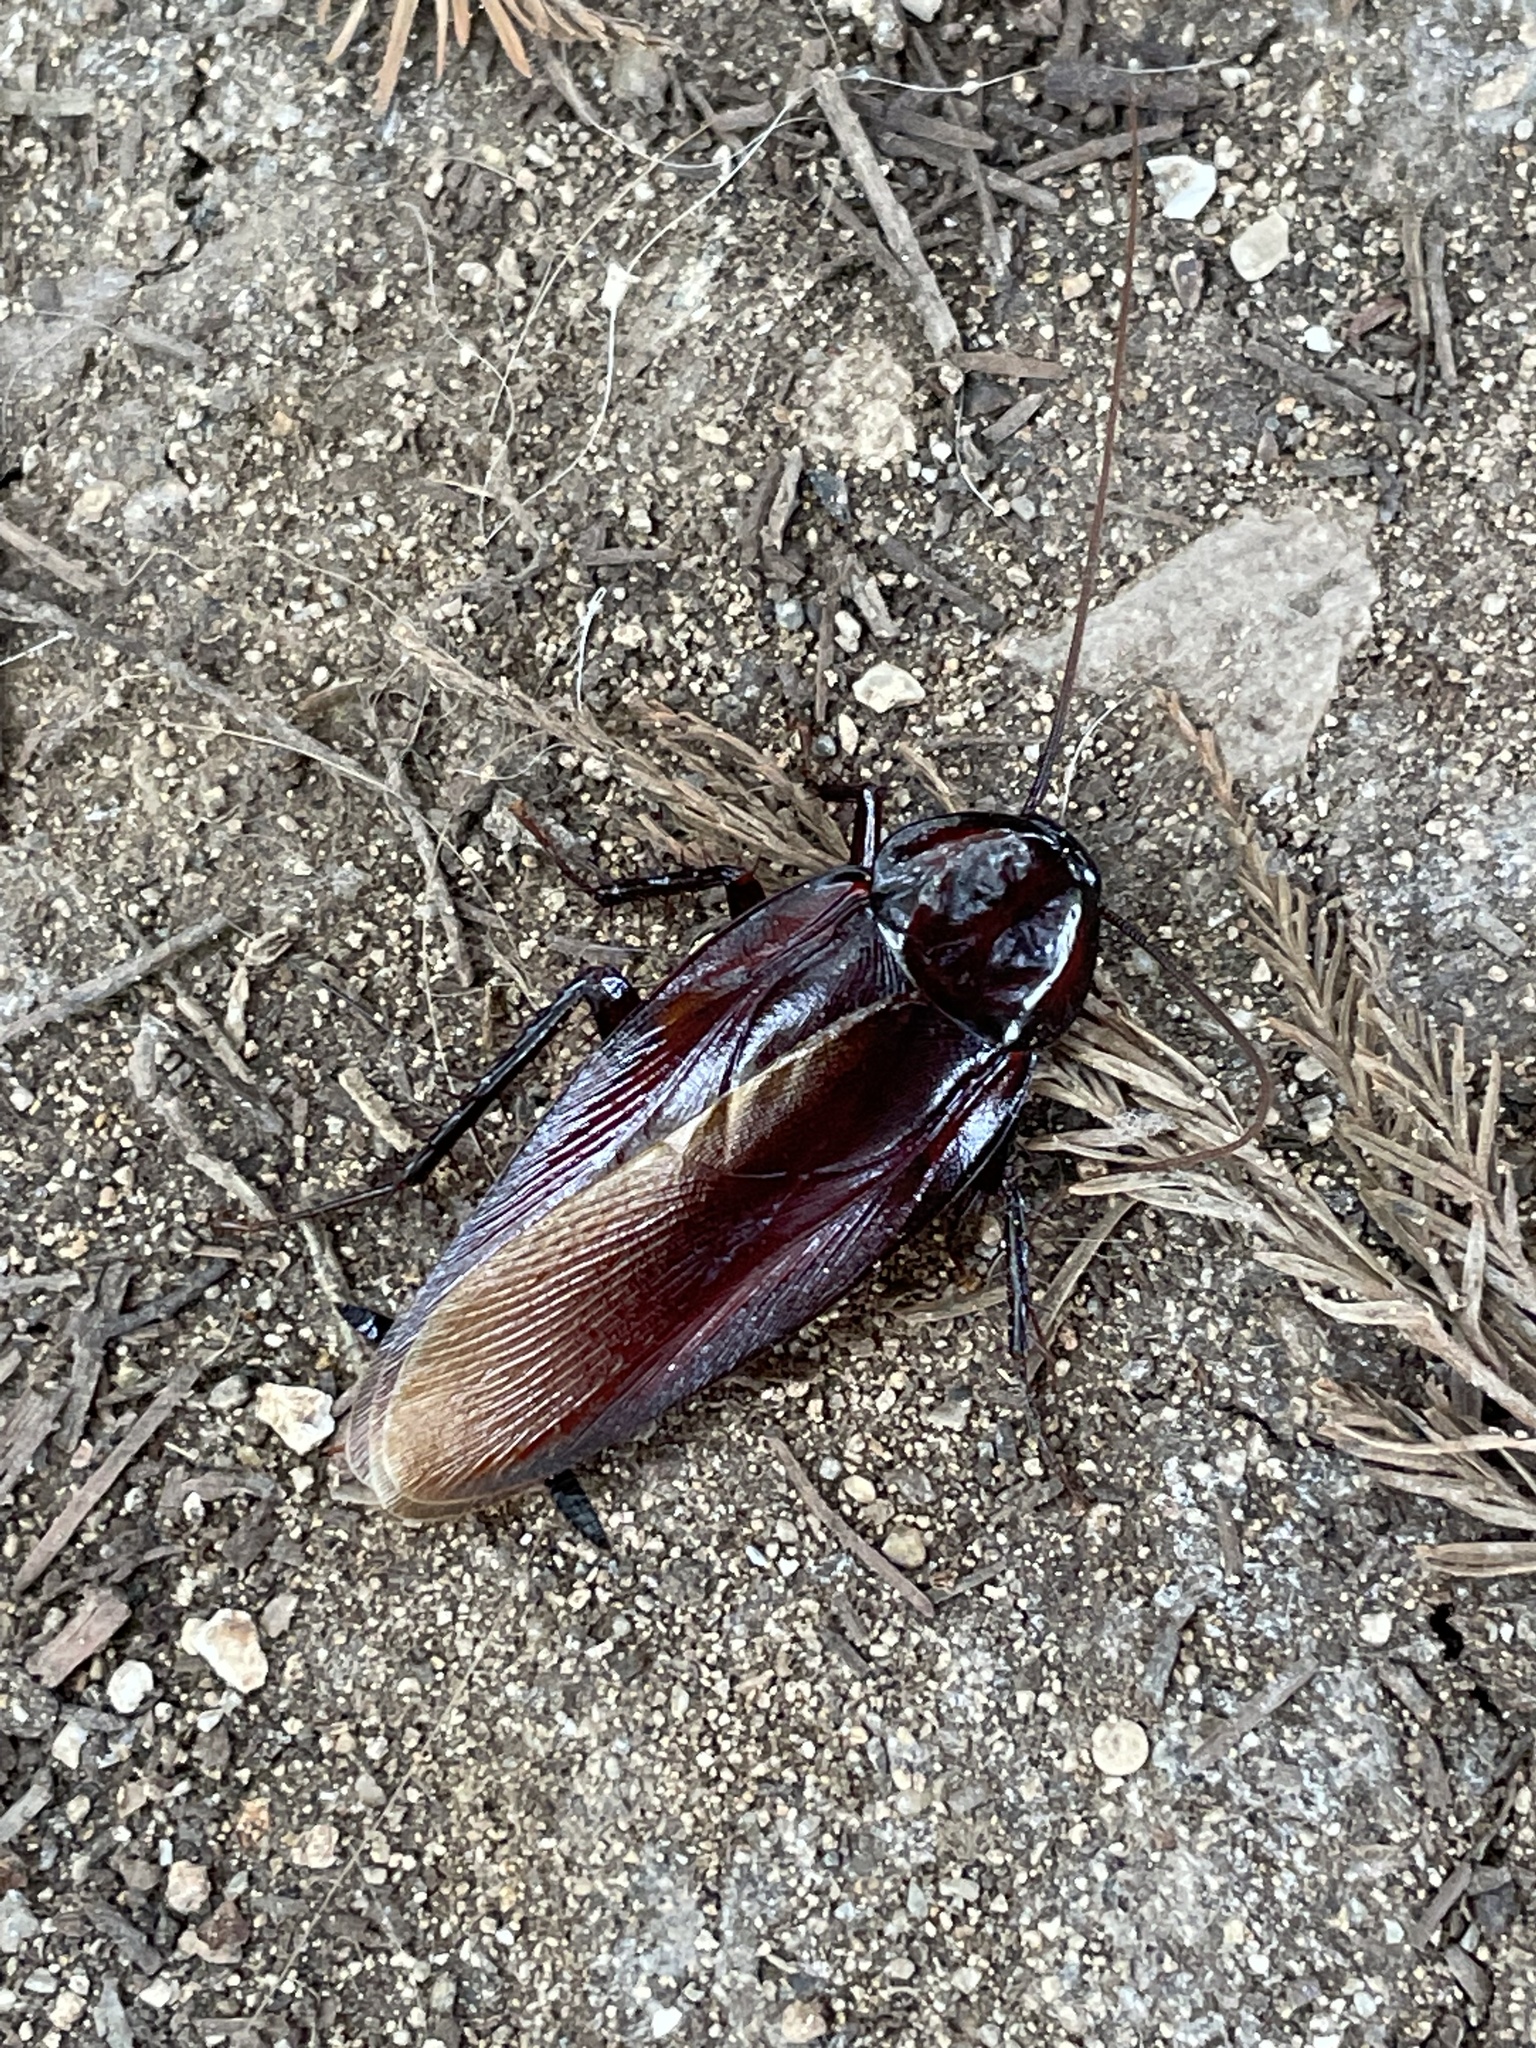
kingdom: Animalia
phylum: Arthropoda
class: Insecta
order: Blattodea
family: Blattidae
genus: Periplaneta
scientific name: Periplaneta fuliginosa
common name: Smokeybrown cockroad
